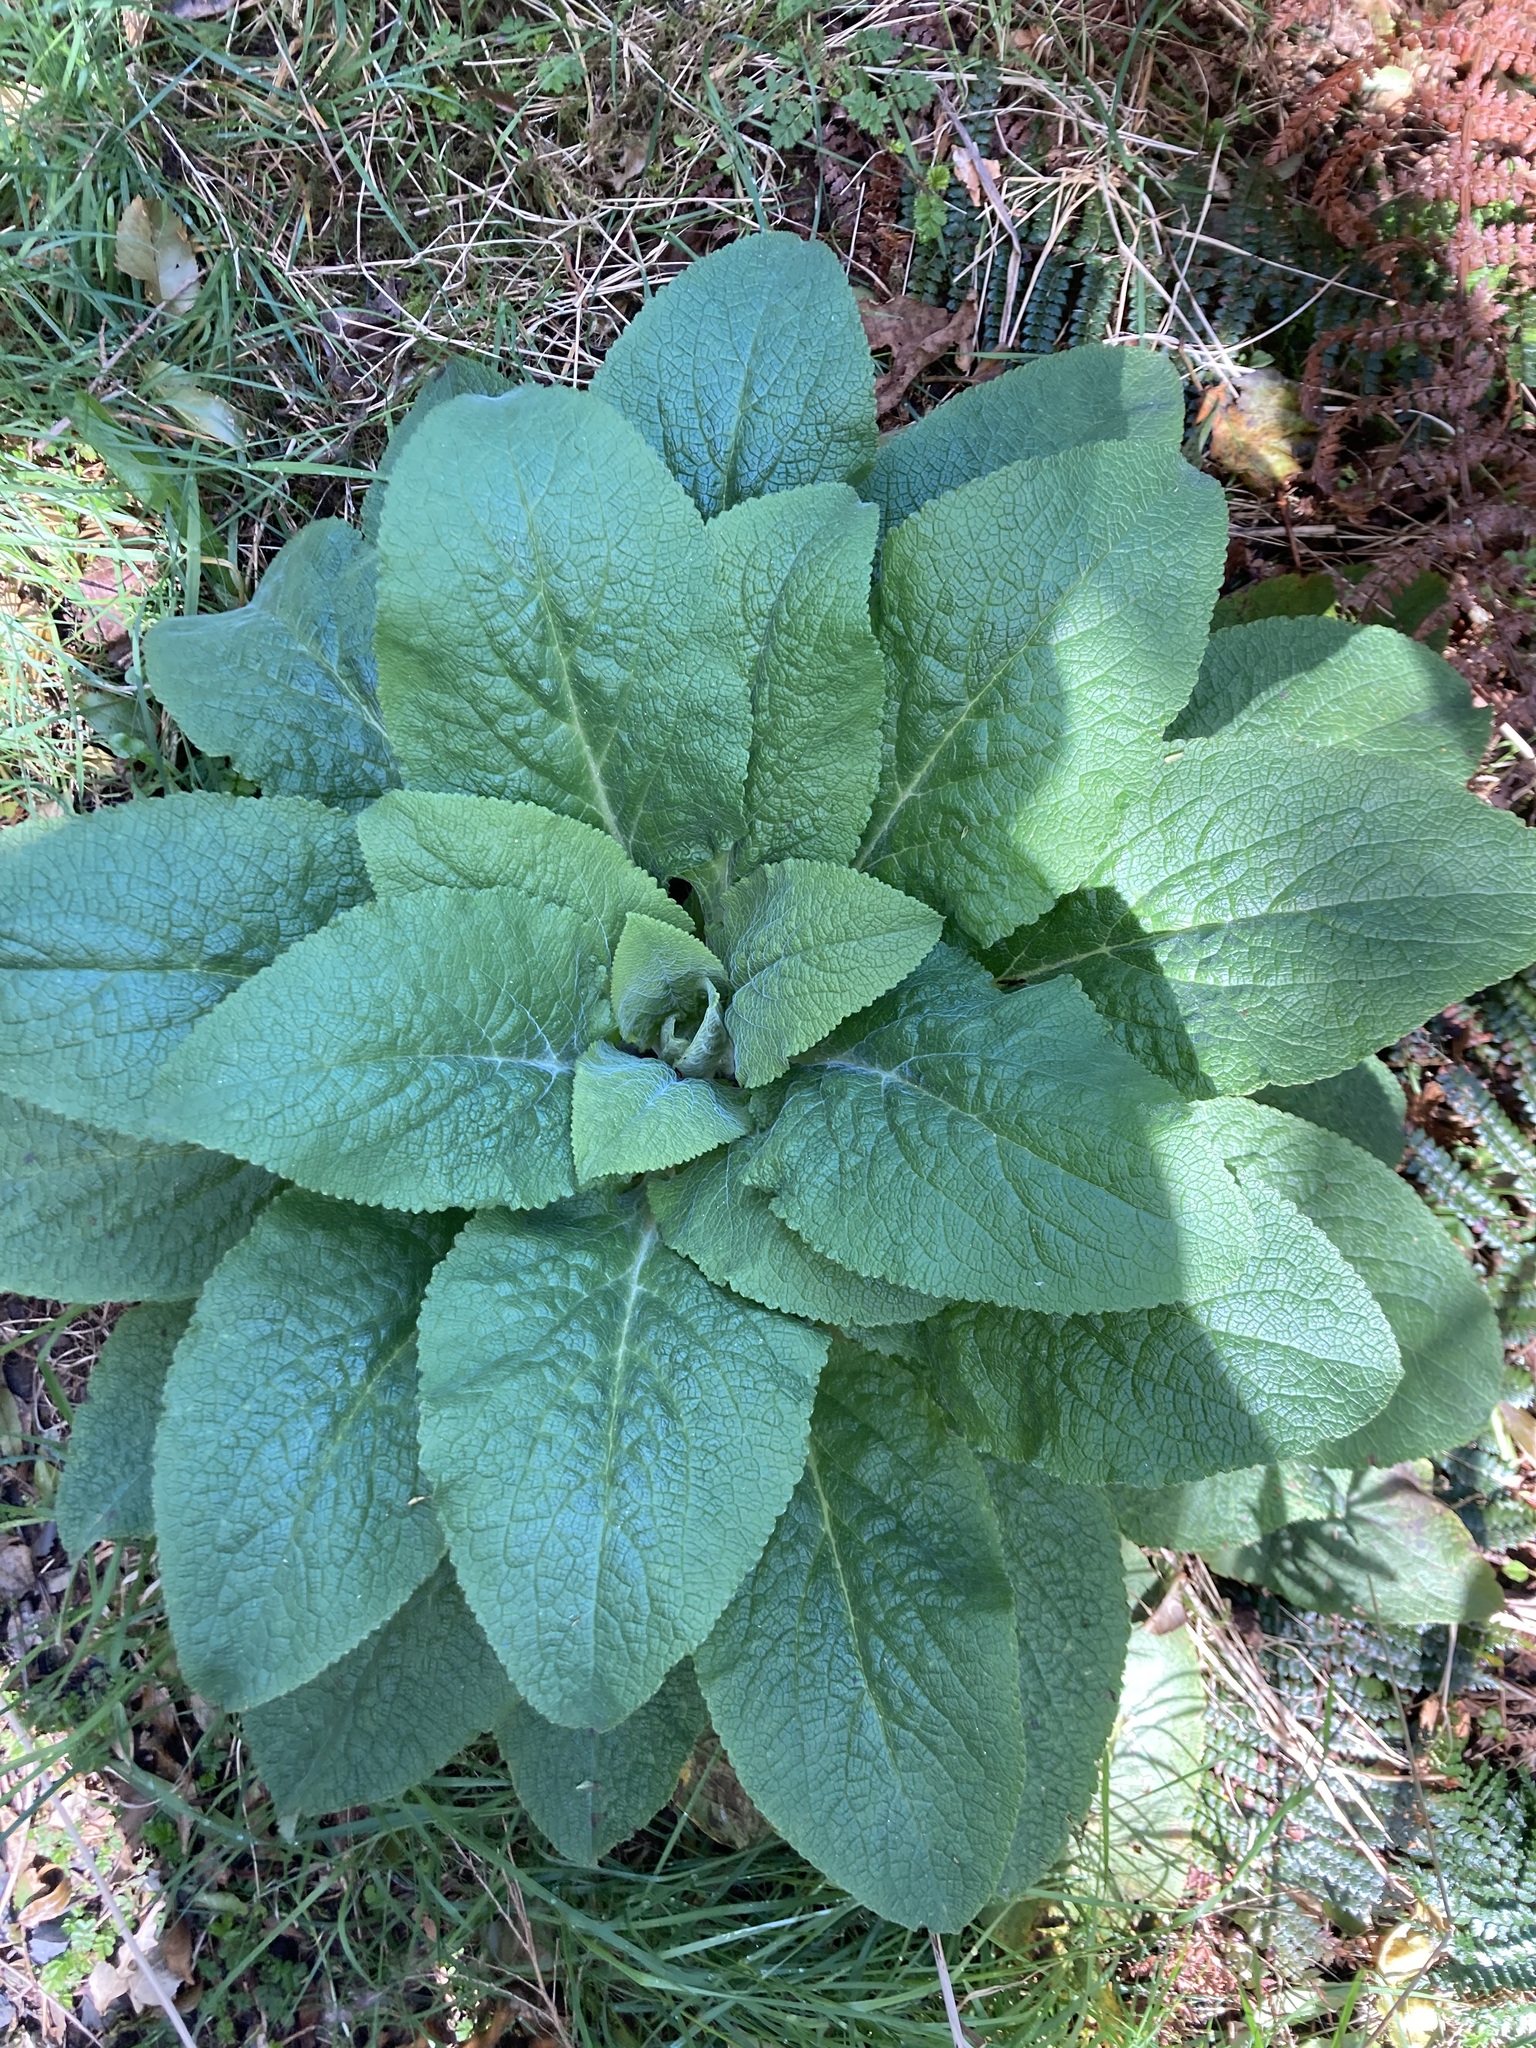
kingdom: Plantae
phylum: Tracheophyta
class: Magnoliopsida
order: Lamiales
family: Plantaginaceae
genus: Digitalis
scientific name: Digitalis purpurea
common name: Foxglove
